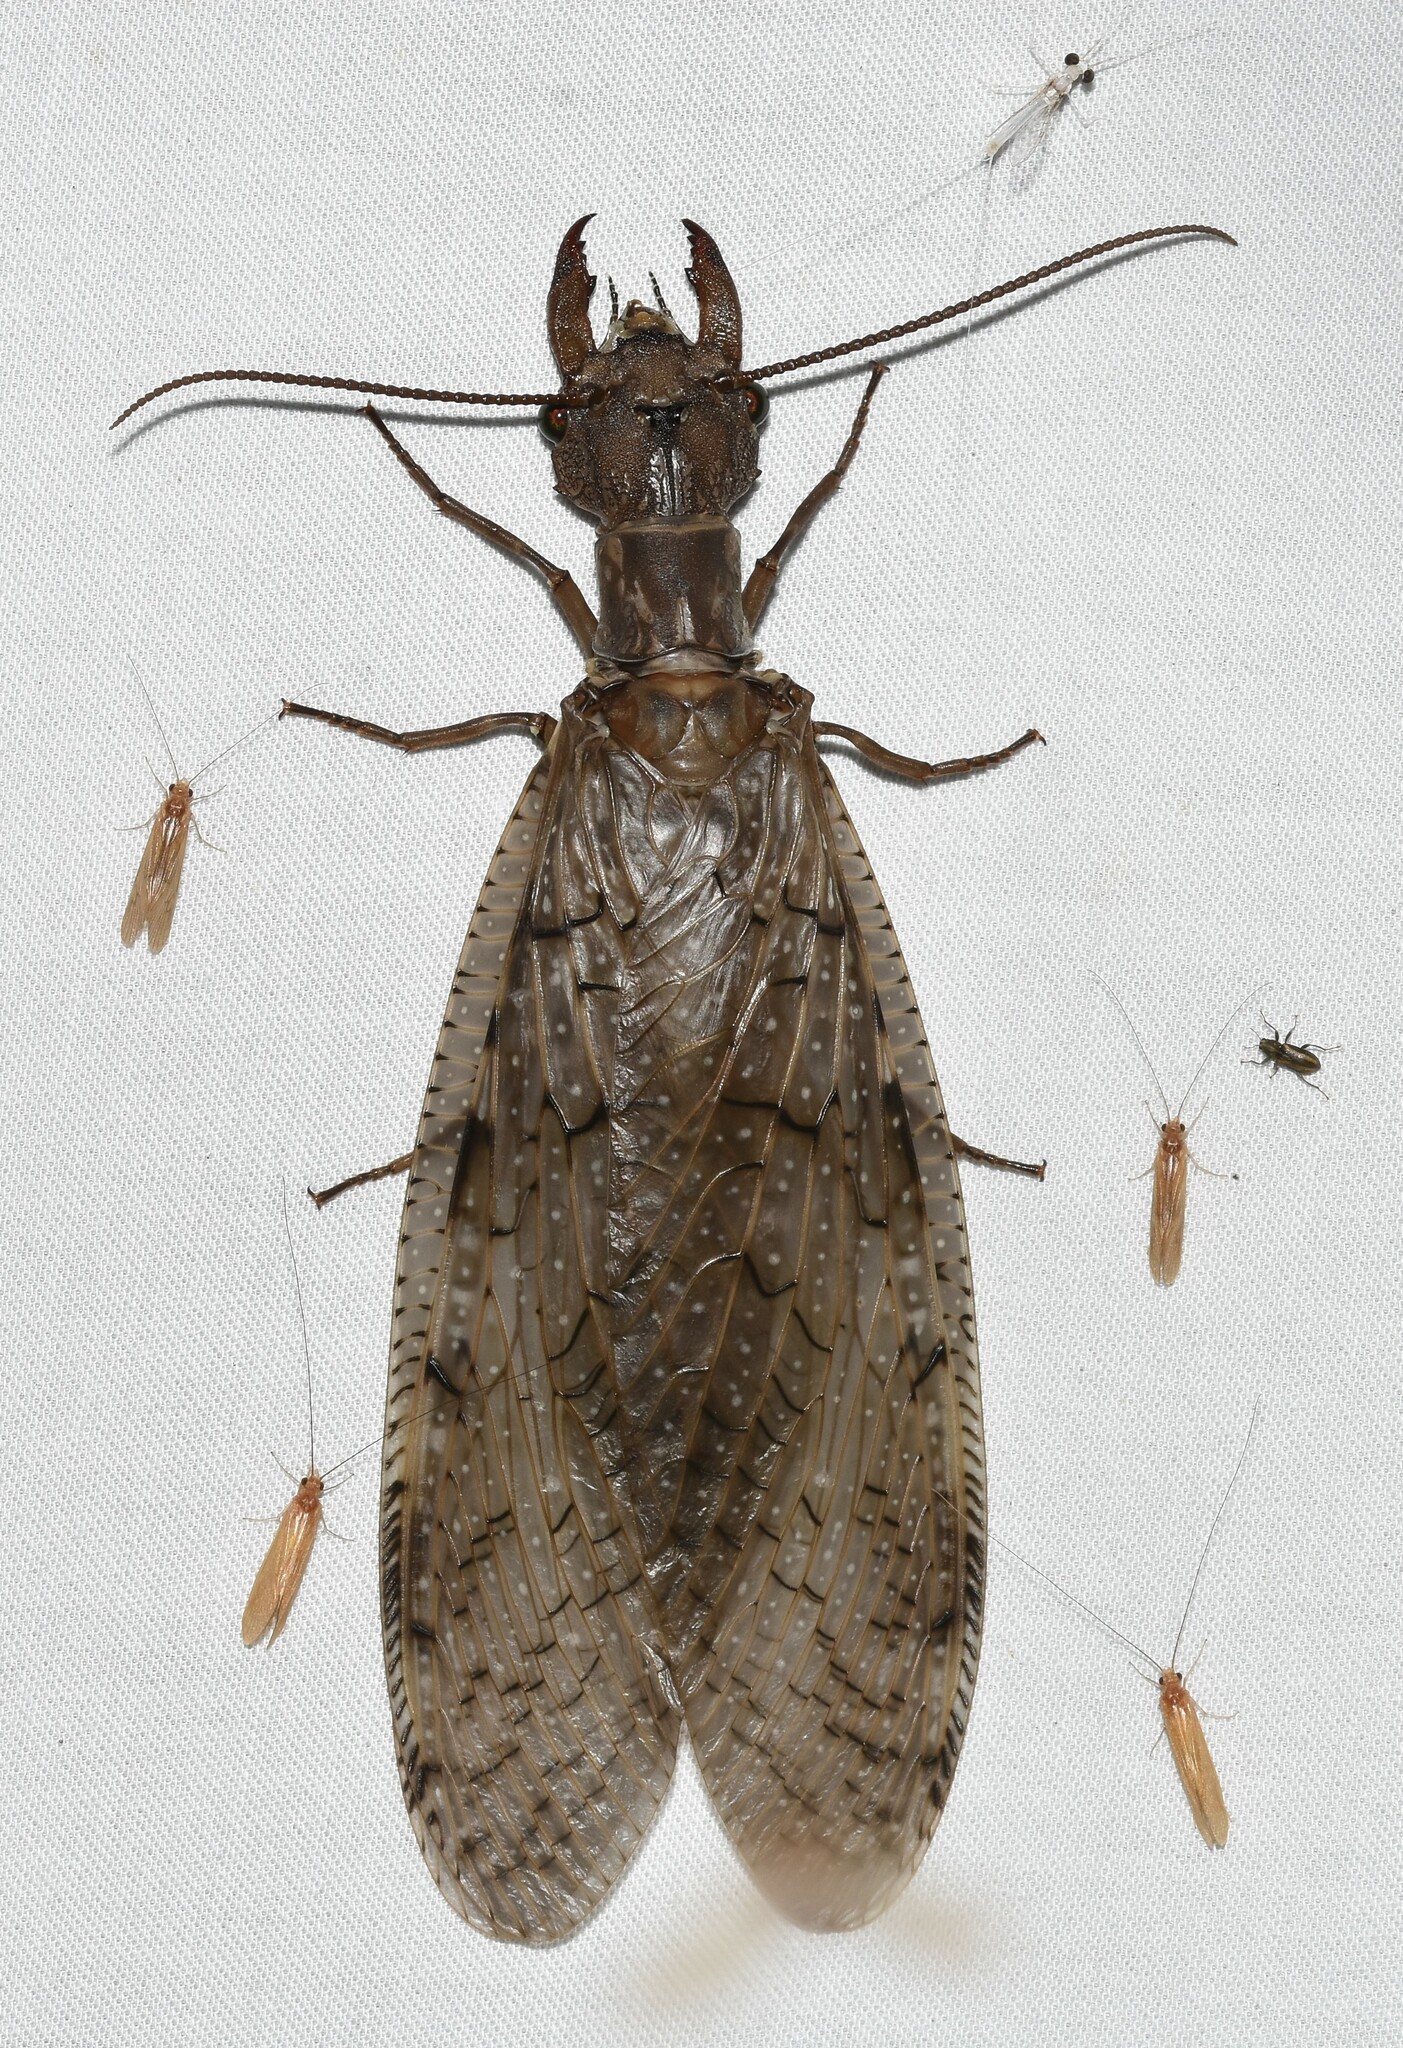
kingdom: Animalia
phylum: Arthropoda
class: Insecta
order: Megaloptera
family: Corydalidae
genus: Corydalus
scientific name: Corydalus cornutus
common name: Dobsonfly
